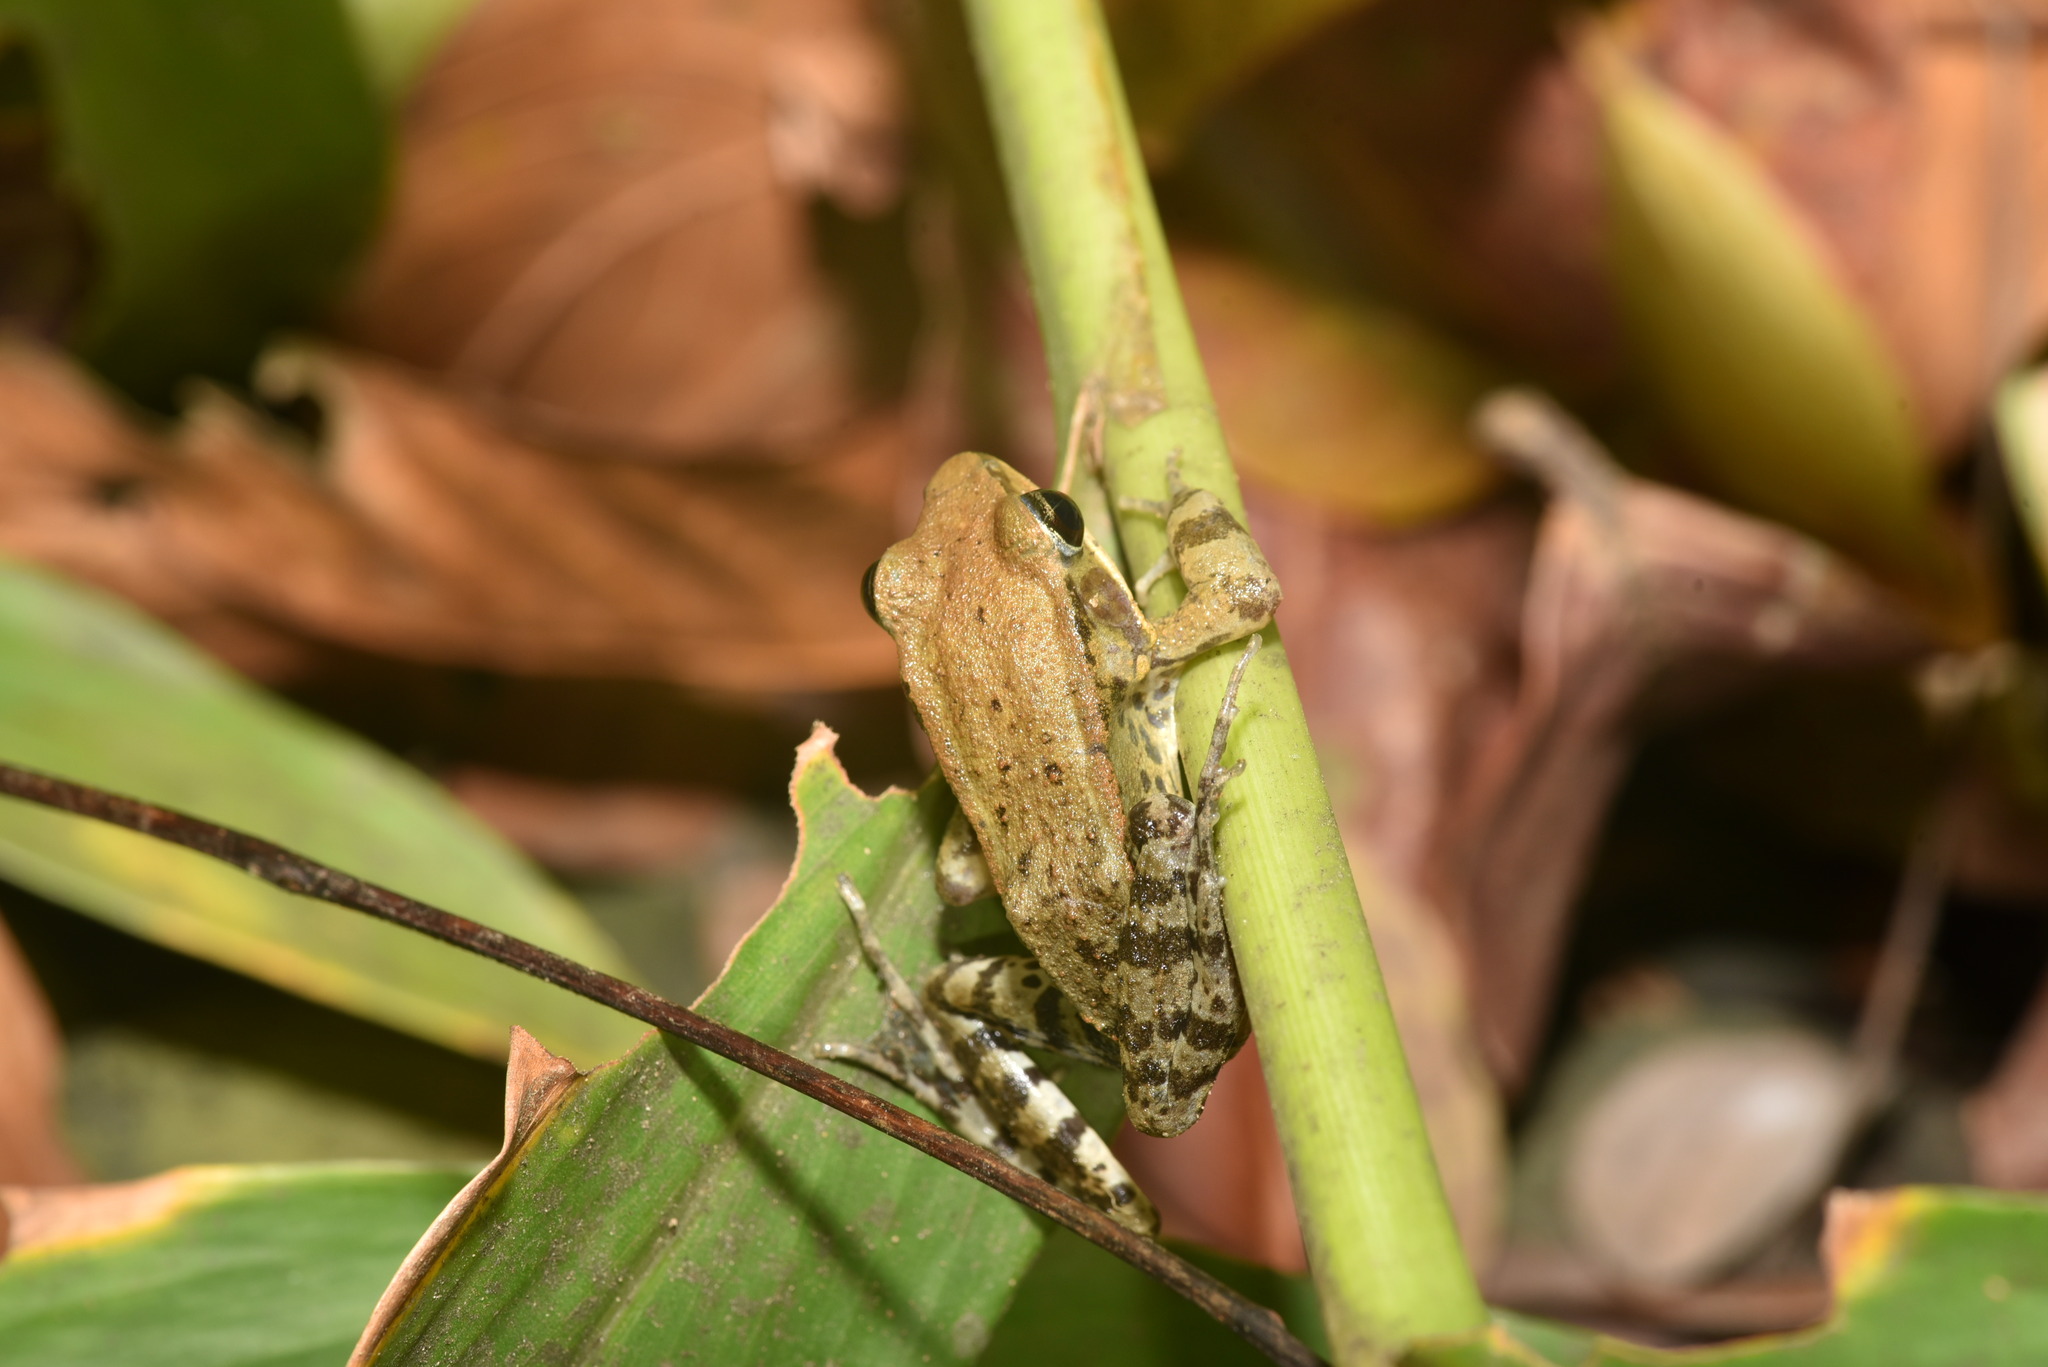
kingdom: Animalia
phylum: Chordata
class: Amphibia
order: Anura
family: Ranidae
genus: Hylarana
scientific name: Hylarana latouchii
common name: Broad-folded frog
